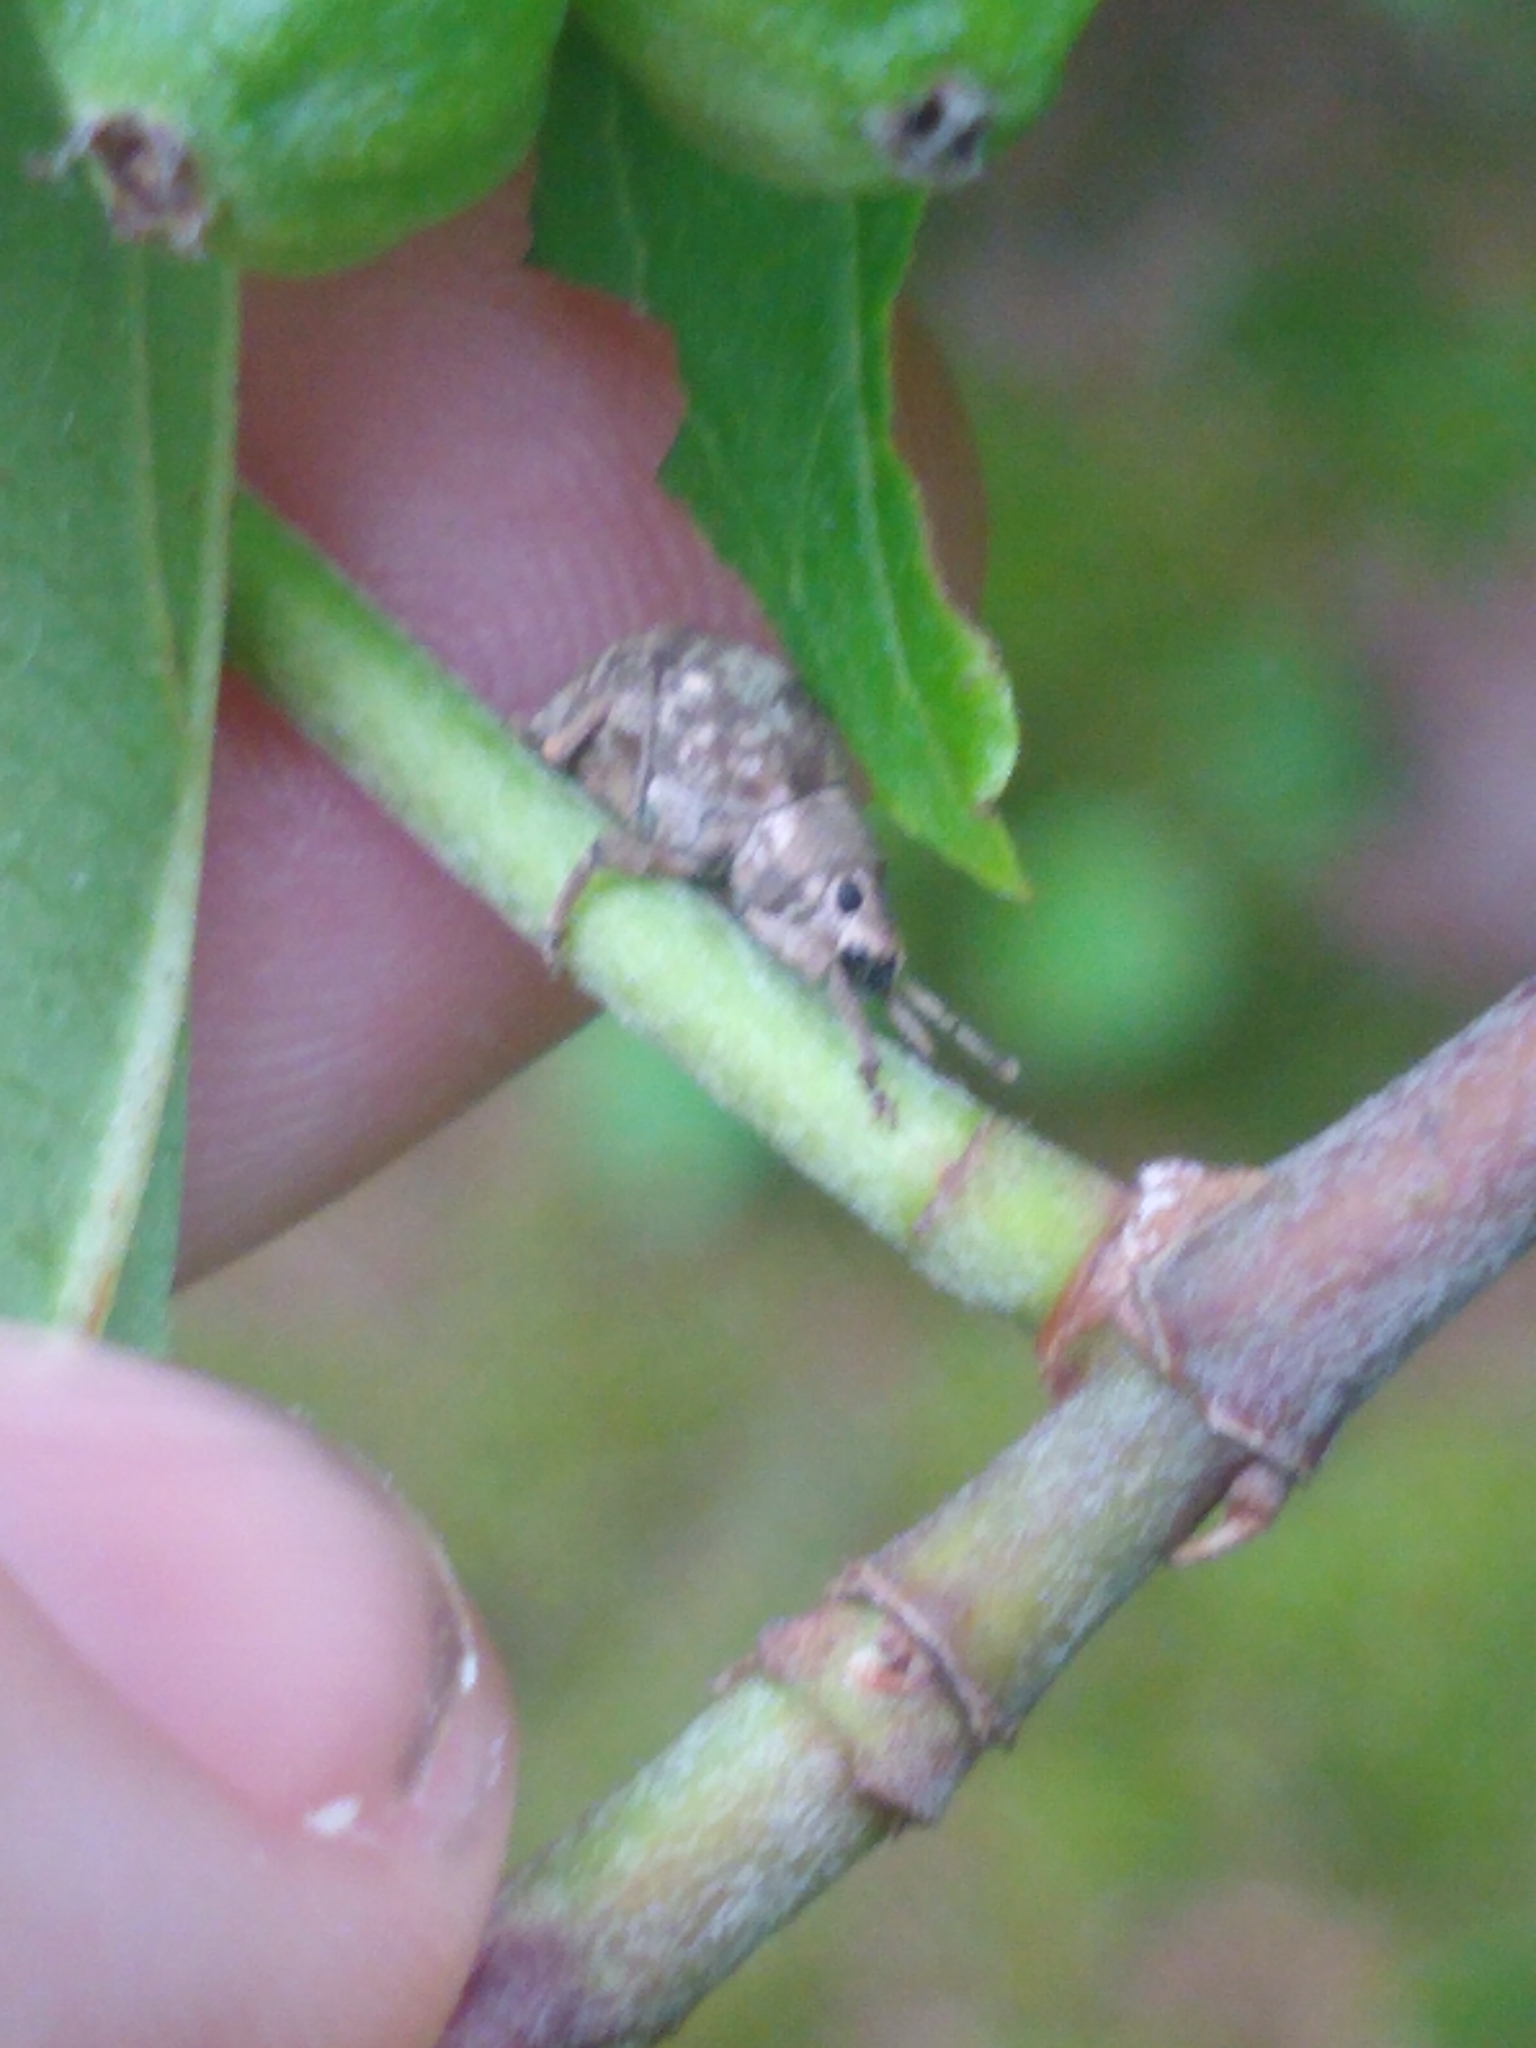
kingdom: Animalia
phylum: Arthropoda
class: Insecta
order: Coleoptera
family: Curculionidae
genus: Pseudocneorhinus
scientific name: Pseudocneorhinus bifasciatus
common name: Two-banded japanese weevil
